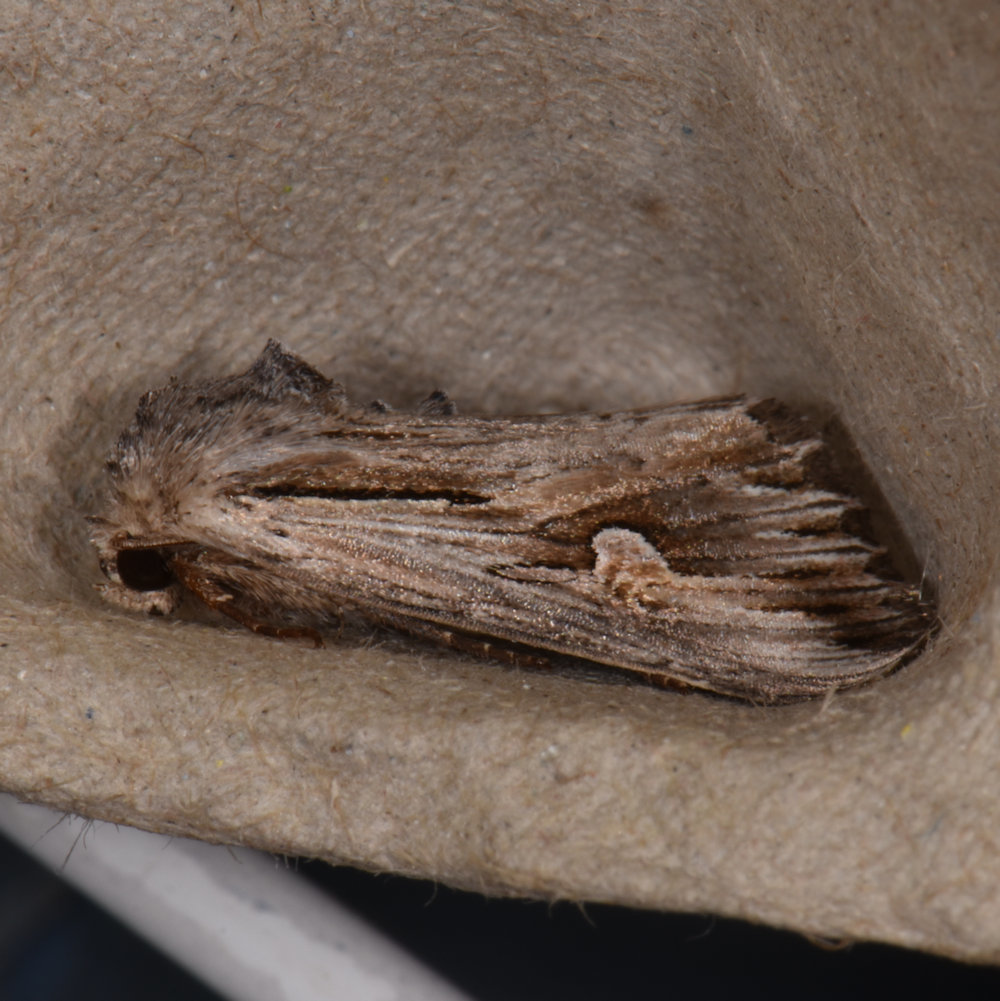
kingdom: Animalia
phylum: Arthropoda
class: Insecta
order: Lepidoptera
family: Noctuidae
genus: Nedra
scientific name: Nedra ramosula
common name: Gray half-spot
